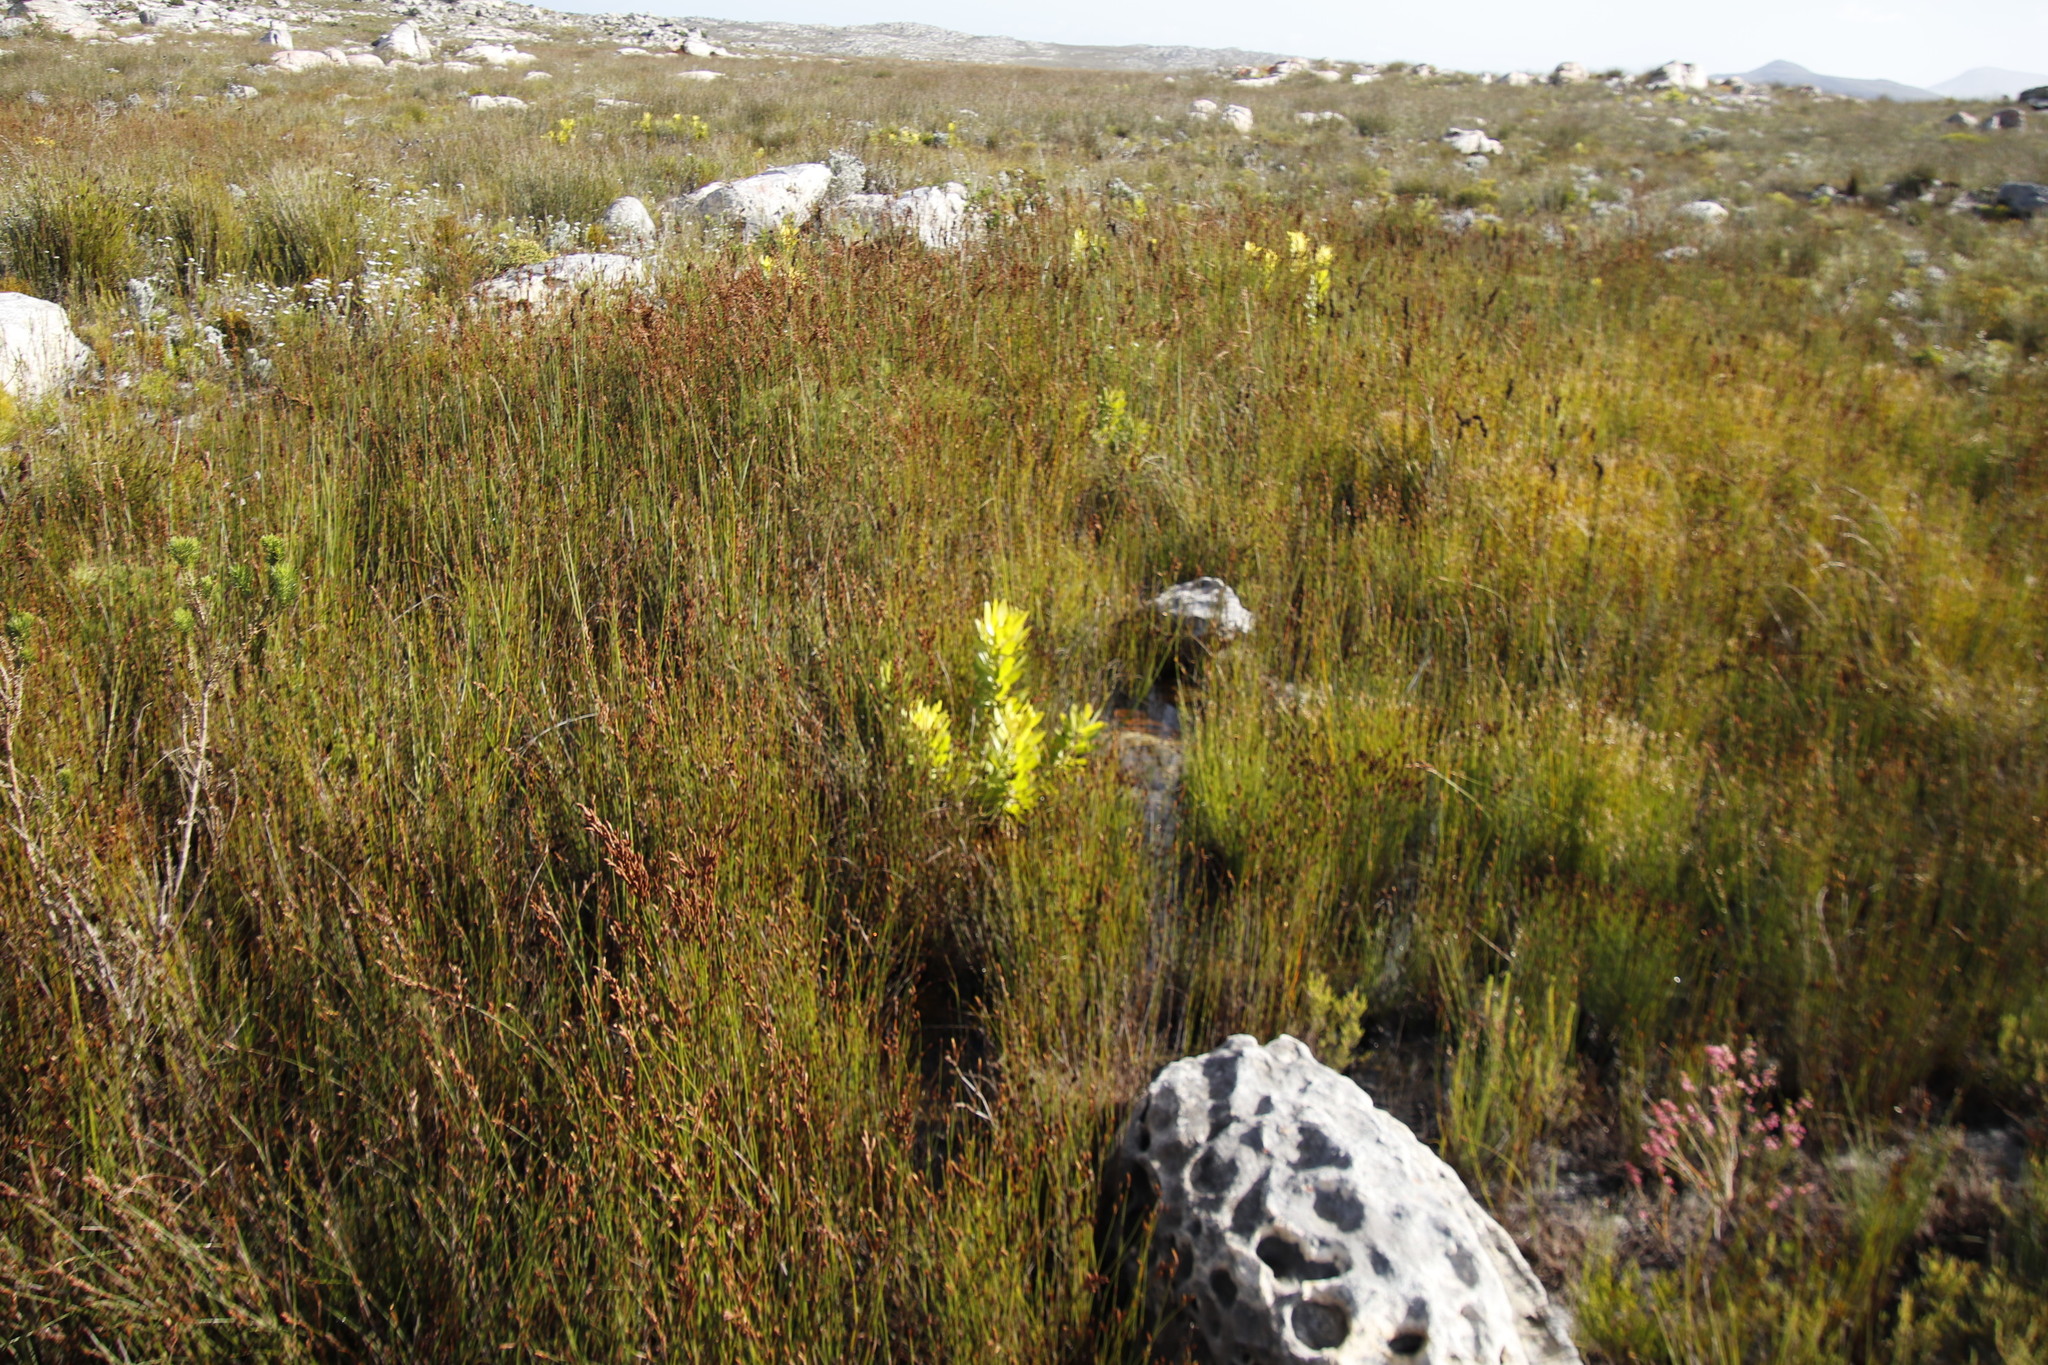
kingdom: Plantae
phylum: Tracheophyta
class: Magnoliopsida
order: Proteales
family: Proteaceae
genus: Leucadendron
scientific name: Leucadendron laureolum
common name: Golden sunshinebush
